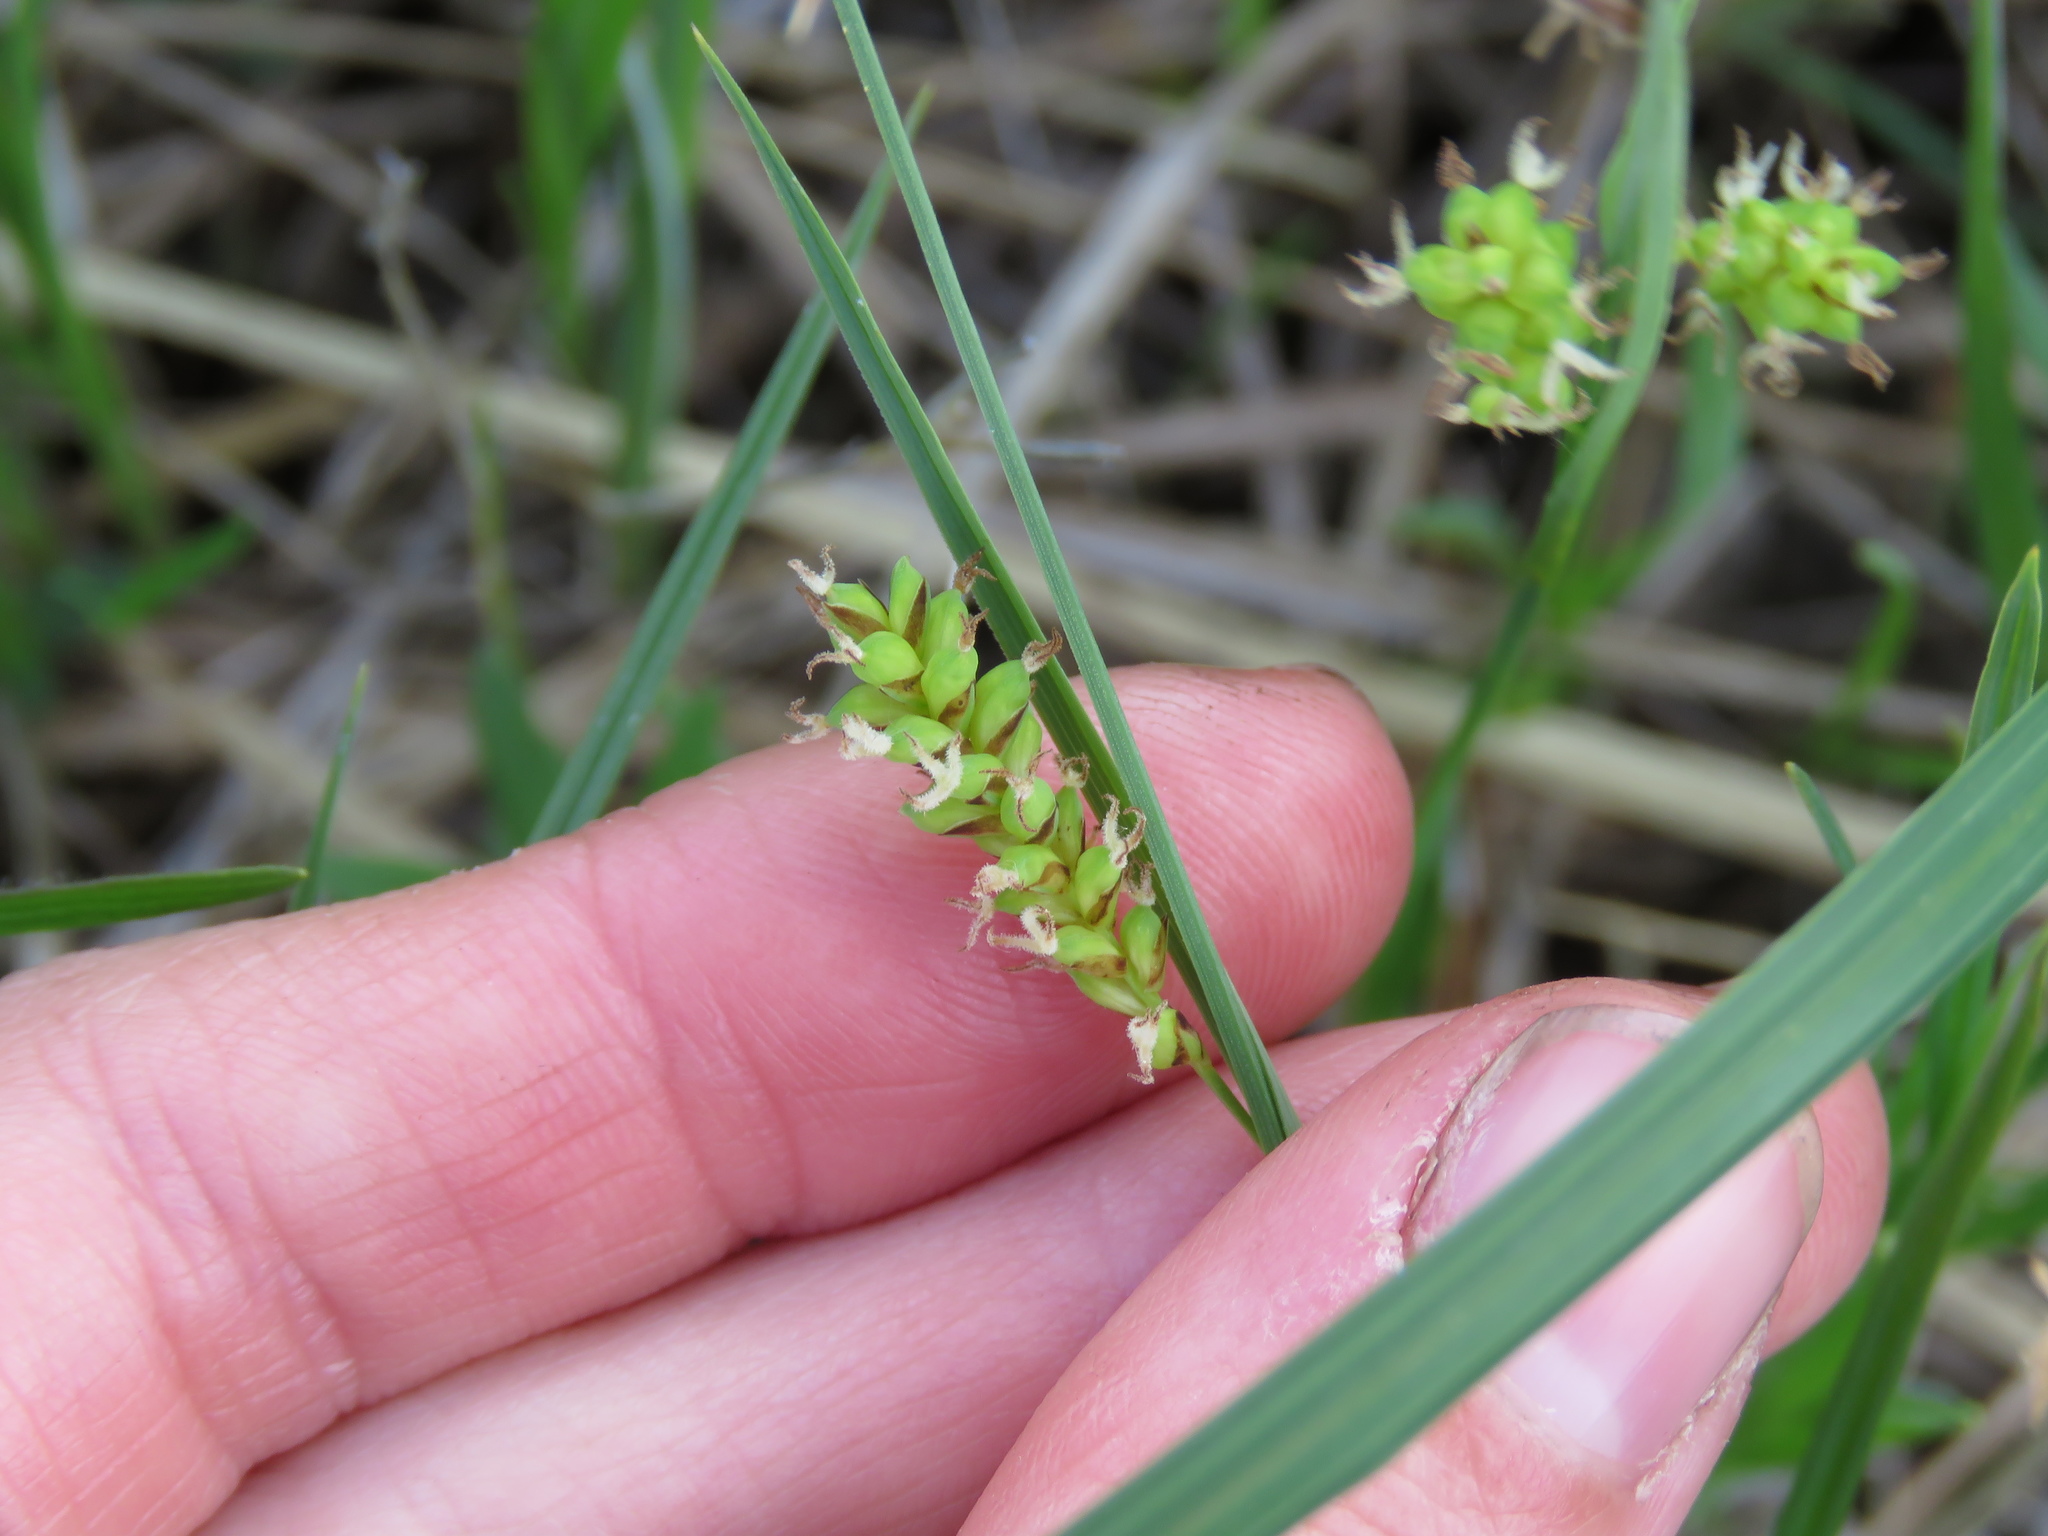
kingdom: Plantae
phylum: Tracheophyta
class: Liliopsida
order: Poales
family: Cyperaceae
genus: Carex
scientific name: Carex meadii
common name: Mead's sedge
